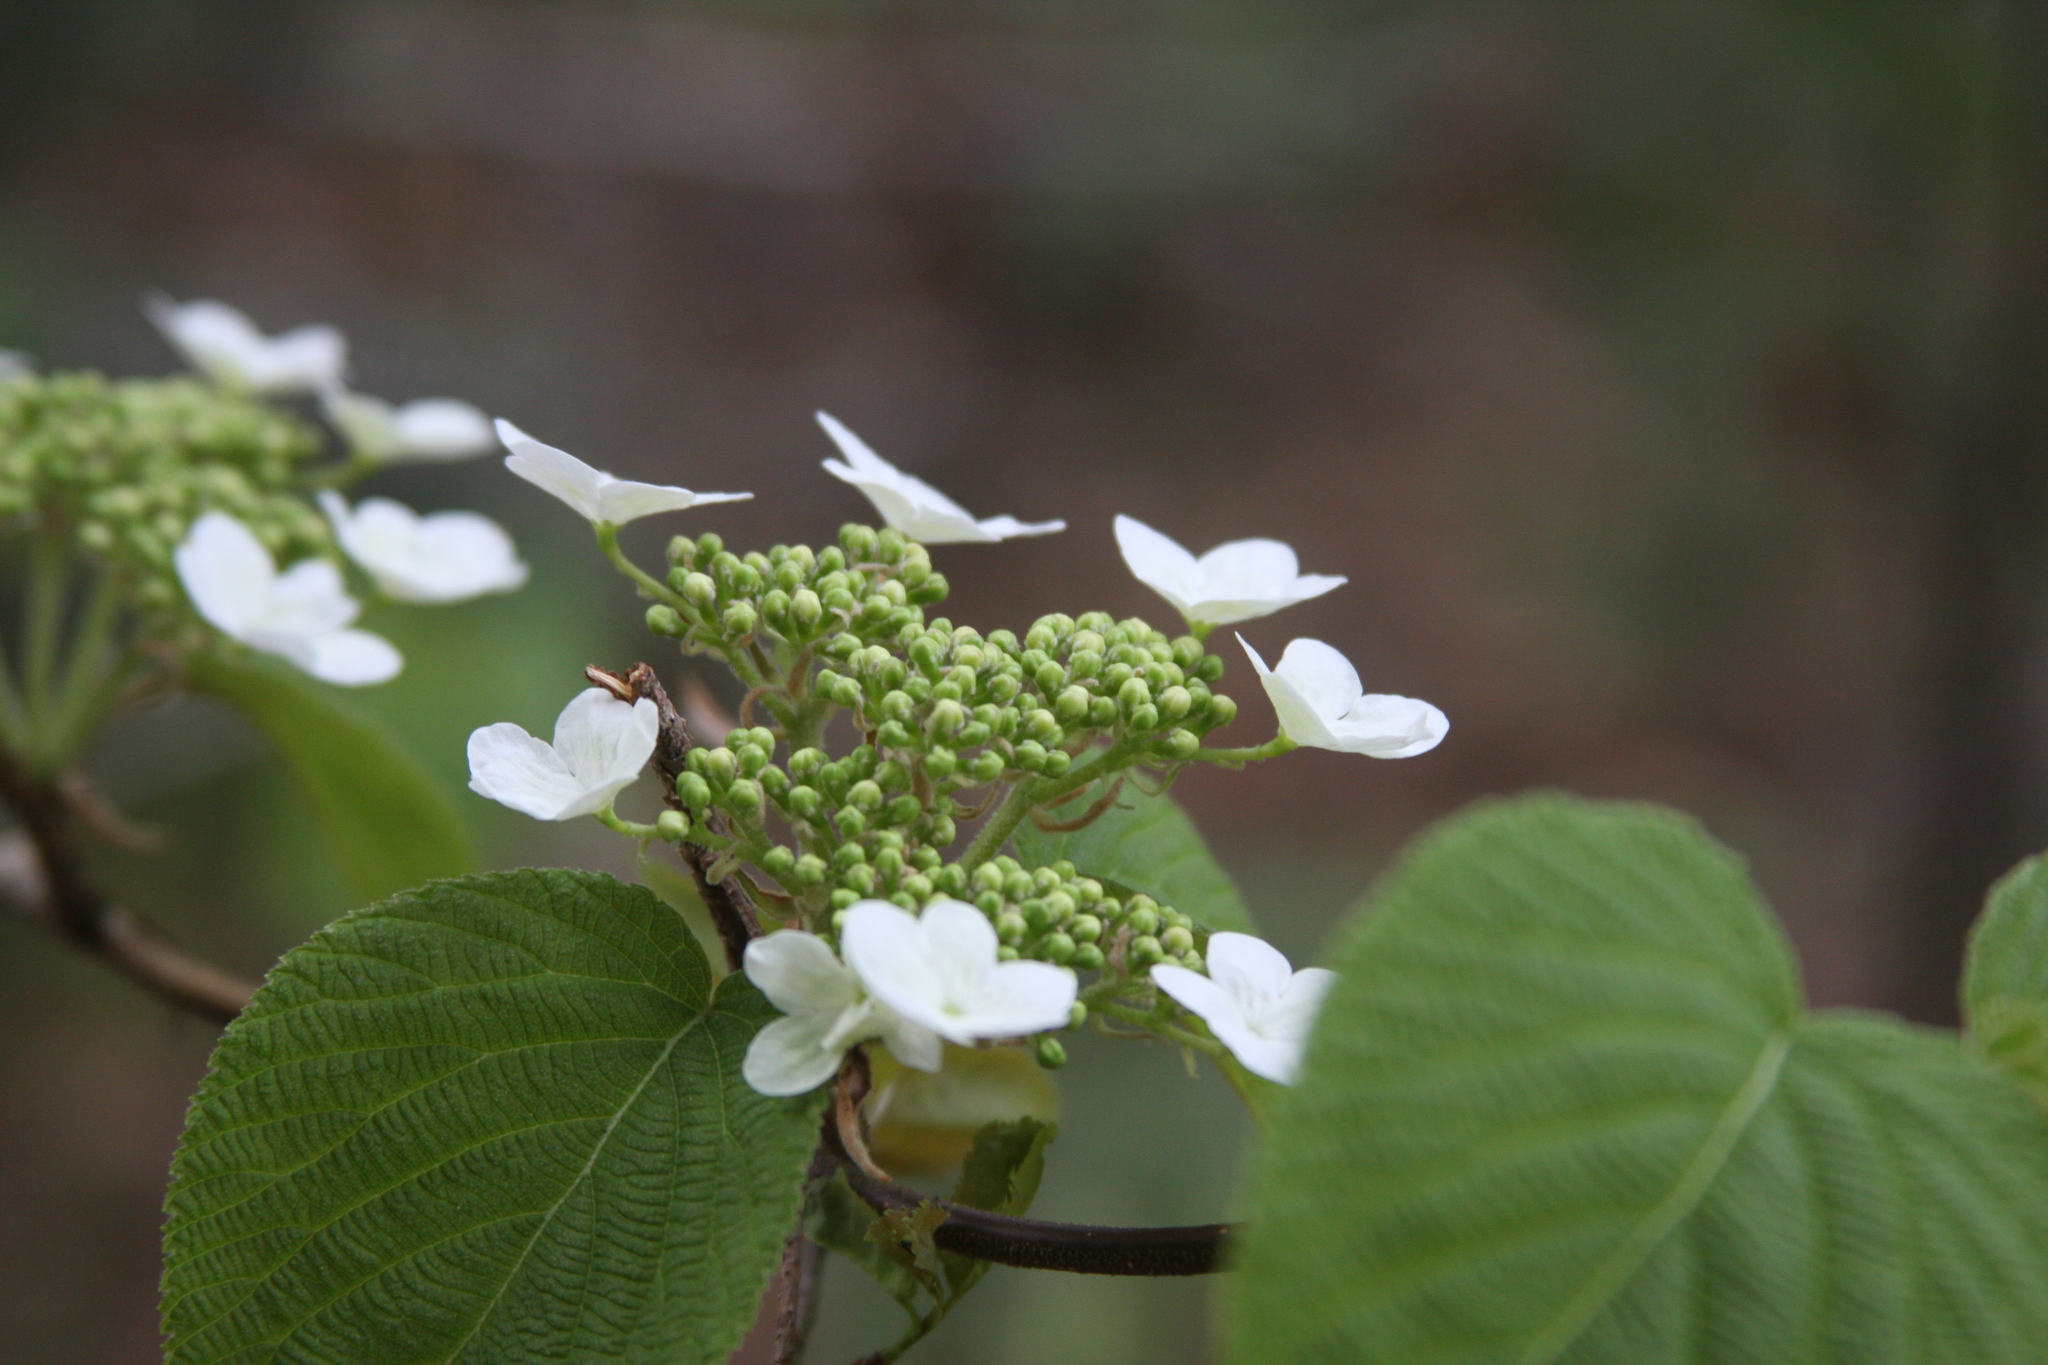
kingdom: Plantae
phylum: Tracheophyta
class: Magnoliopsida
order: Dipsacales
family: Viburnaceae
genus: Viburnum
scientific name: Viburnum lantanoides
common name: Hobblebush
